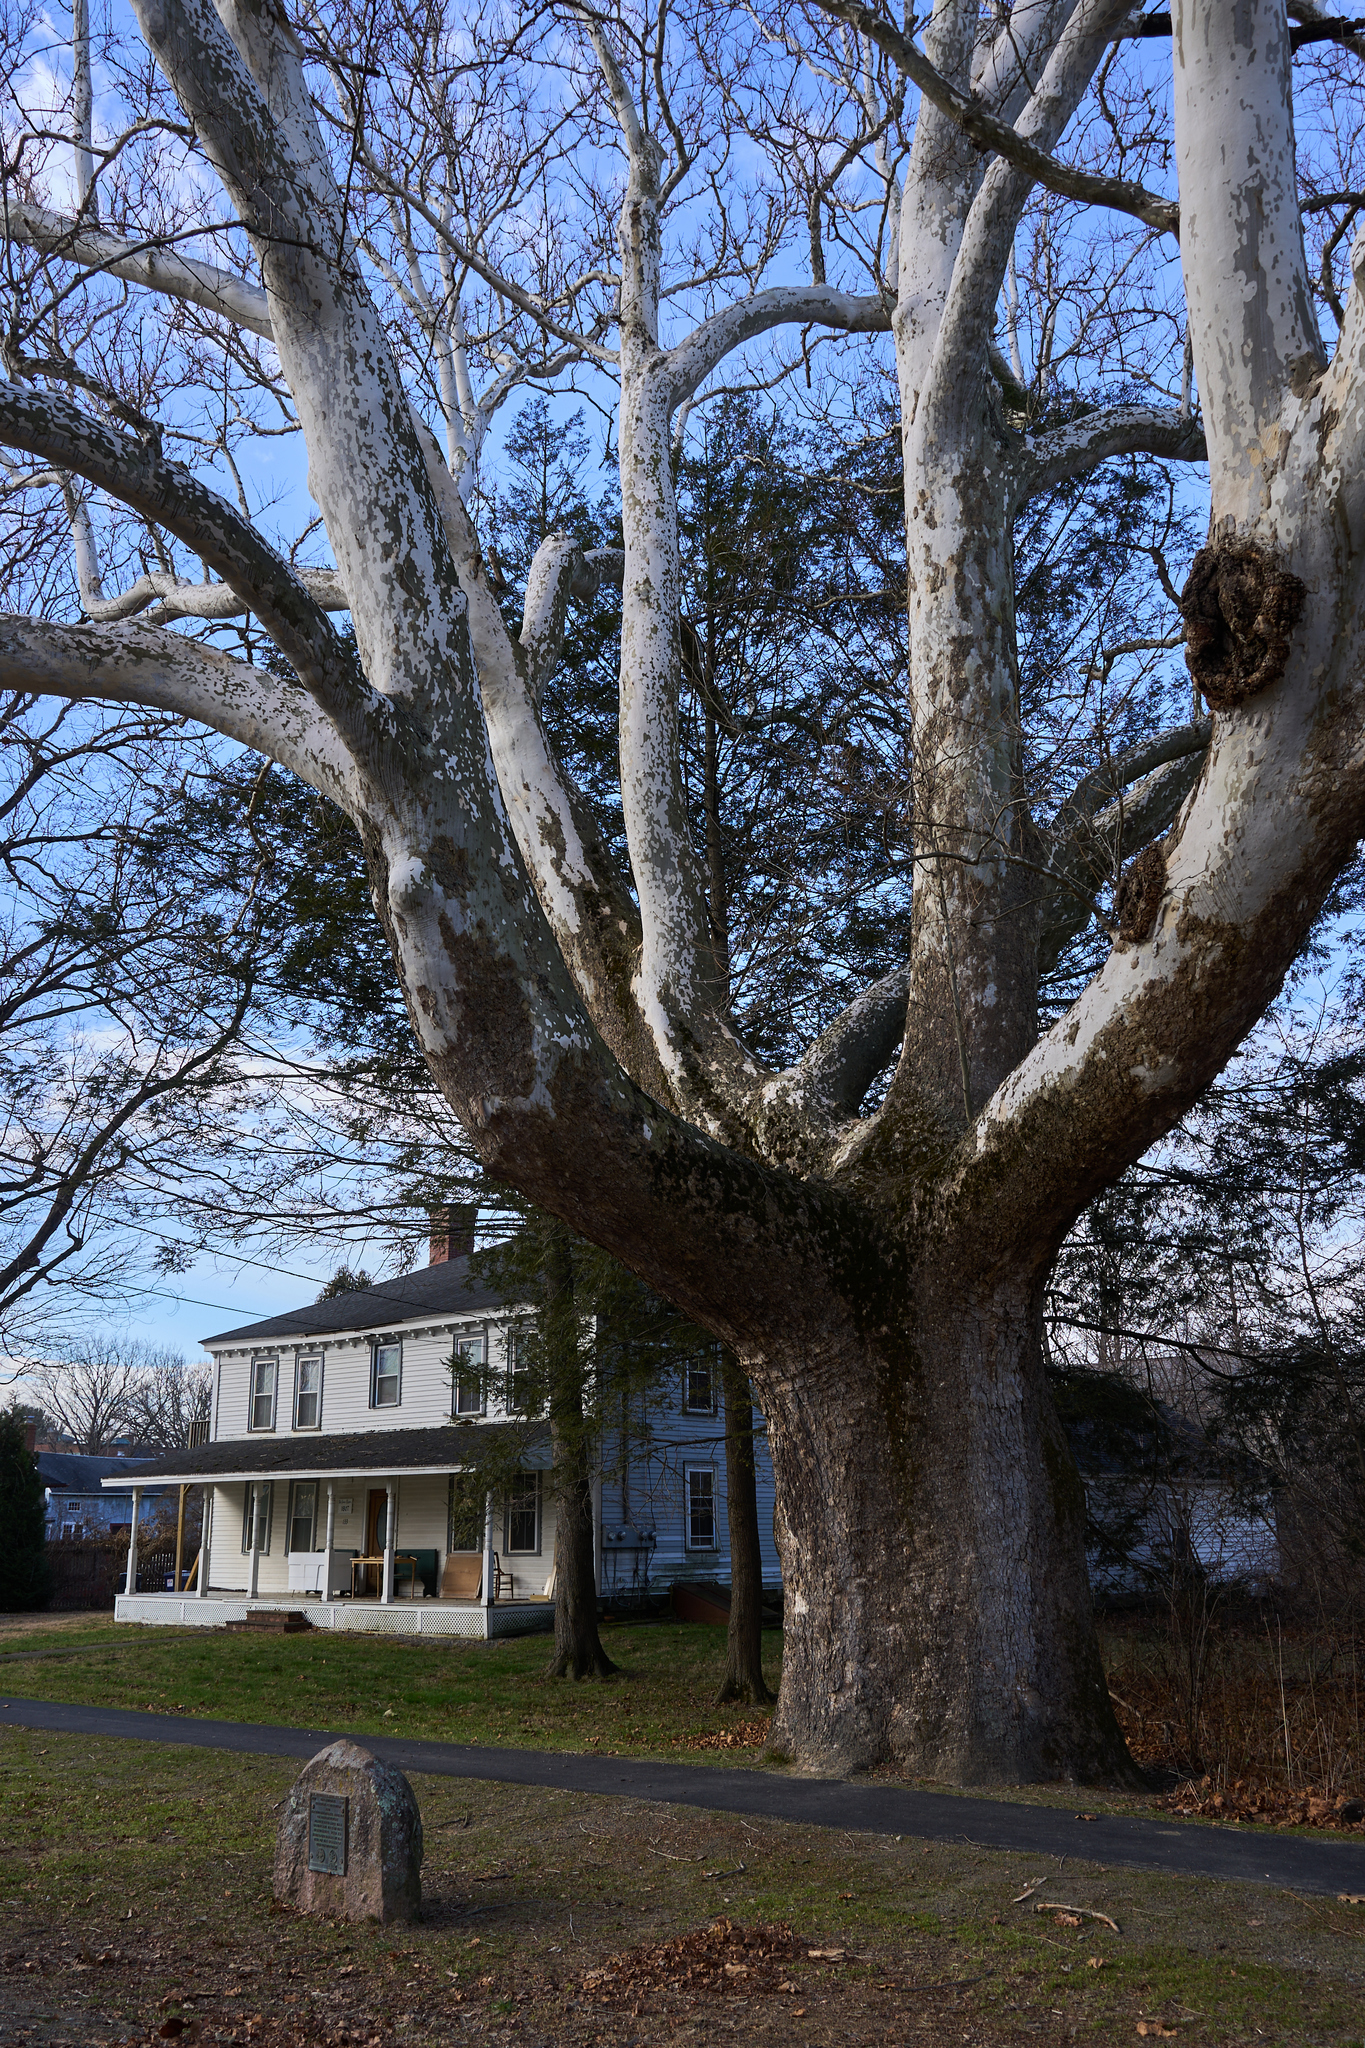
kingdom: Plantae
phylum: Tracheophyta
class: Magnoliopsida
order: Proteales
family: Platanaceae
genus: Platanus
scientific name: Platanus occidentalis
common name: American sycamore
